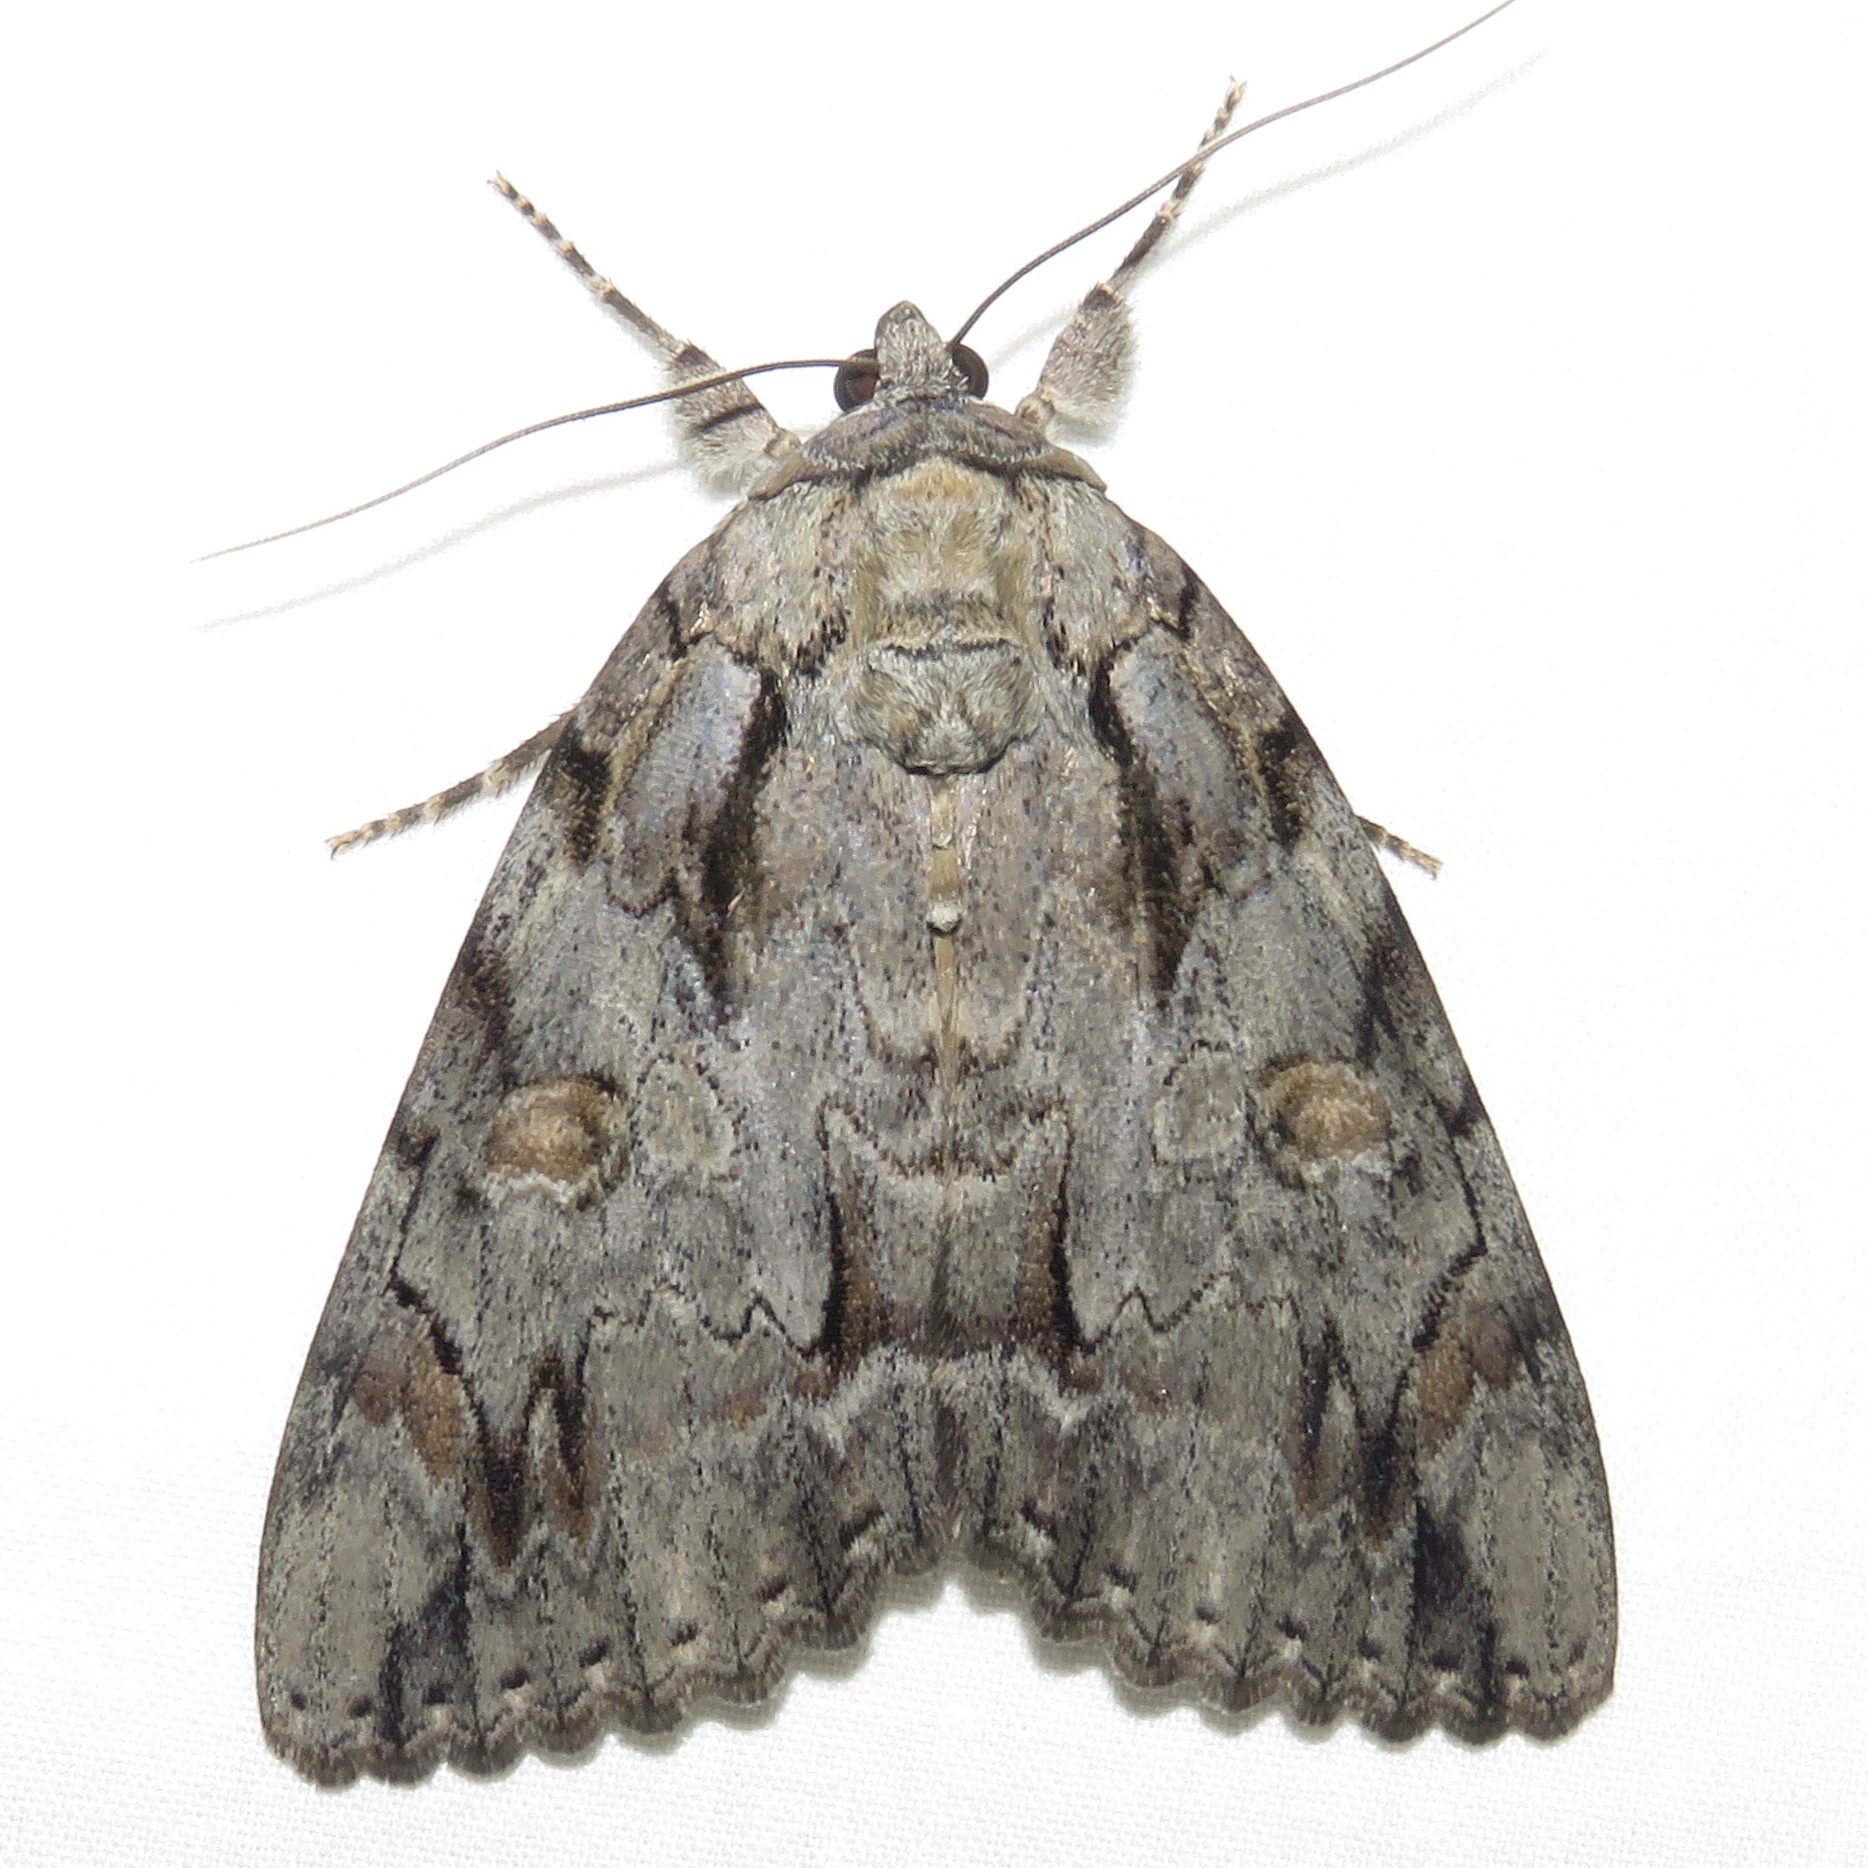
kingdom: Animalia
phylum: Arthropoda
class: Insecta
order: Lepidoptera
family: Erebidae
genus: Catocala
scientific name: Catocala neogama
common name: Bride underwing
